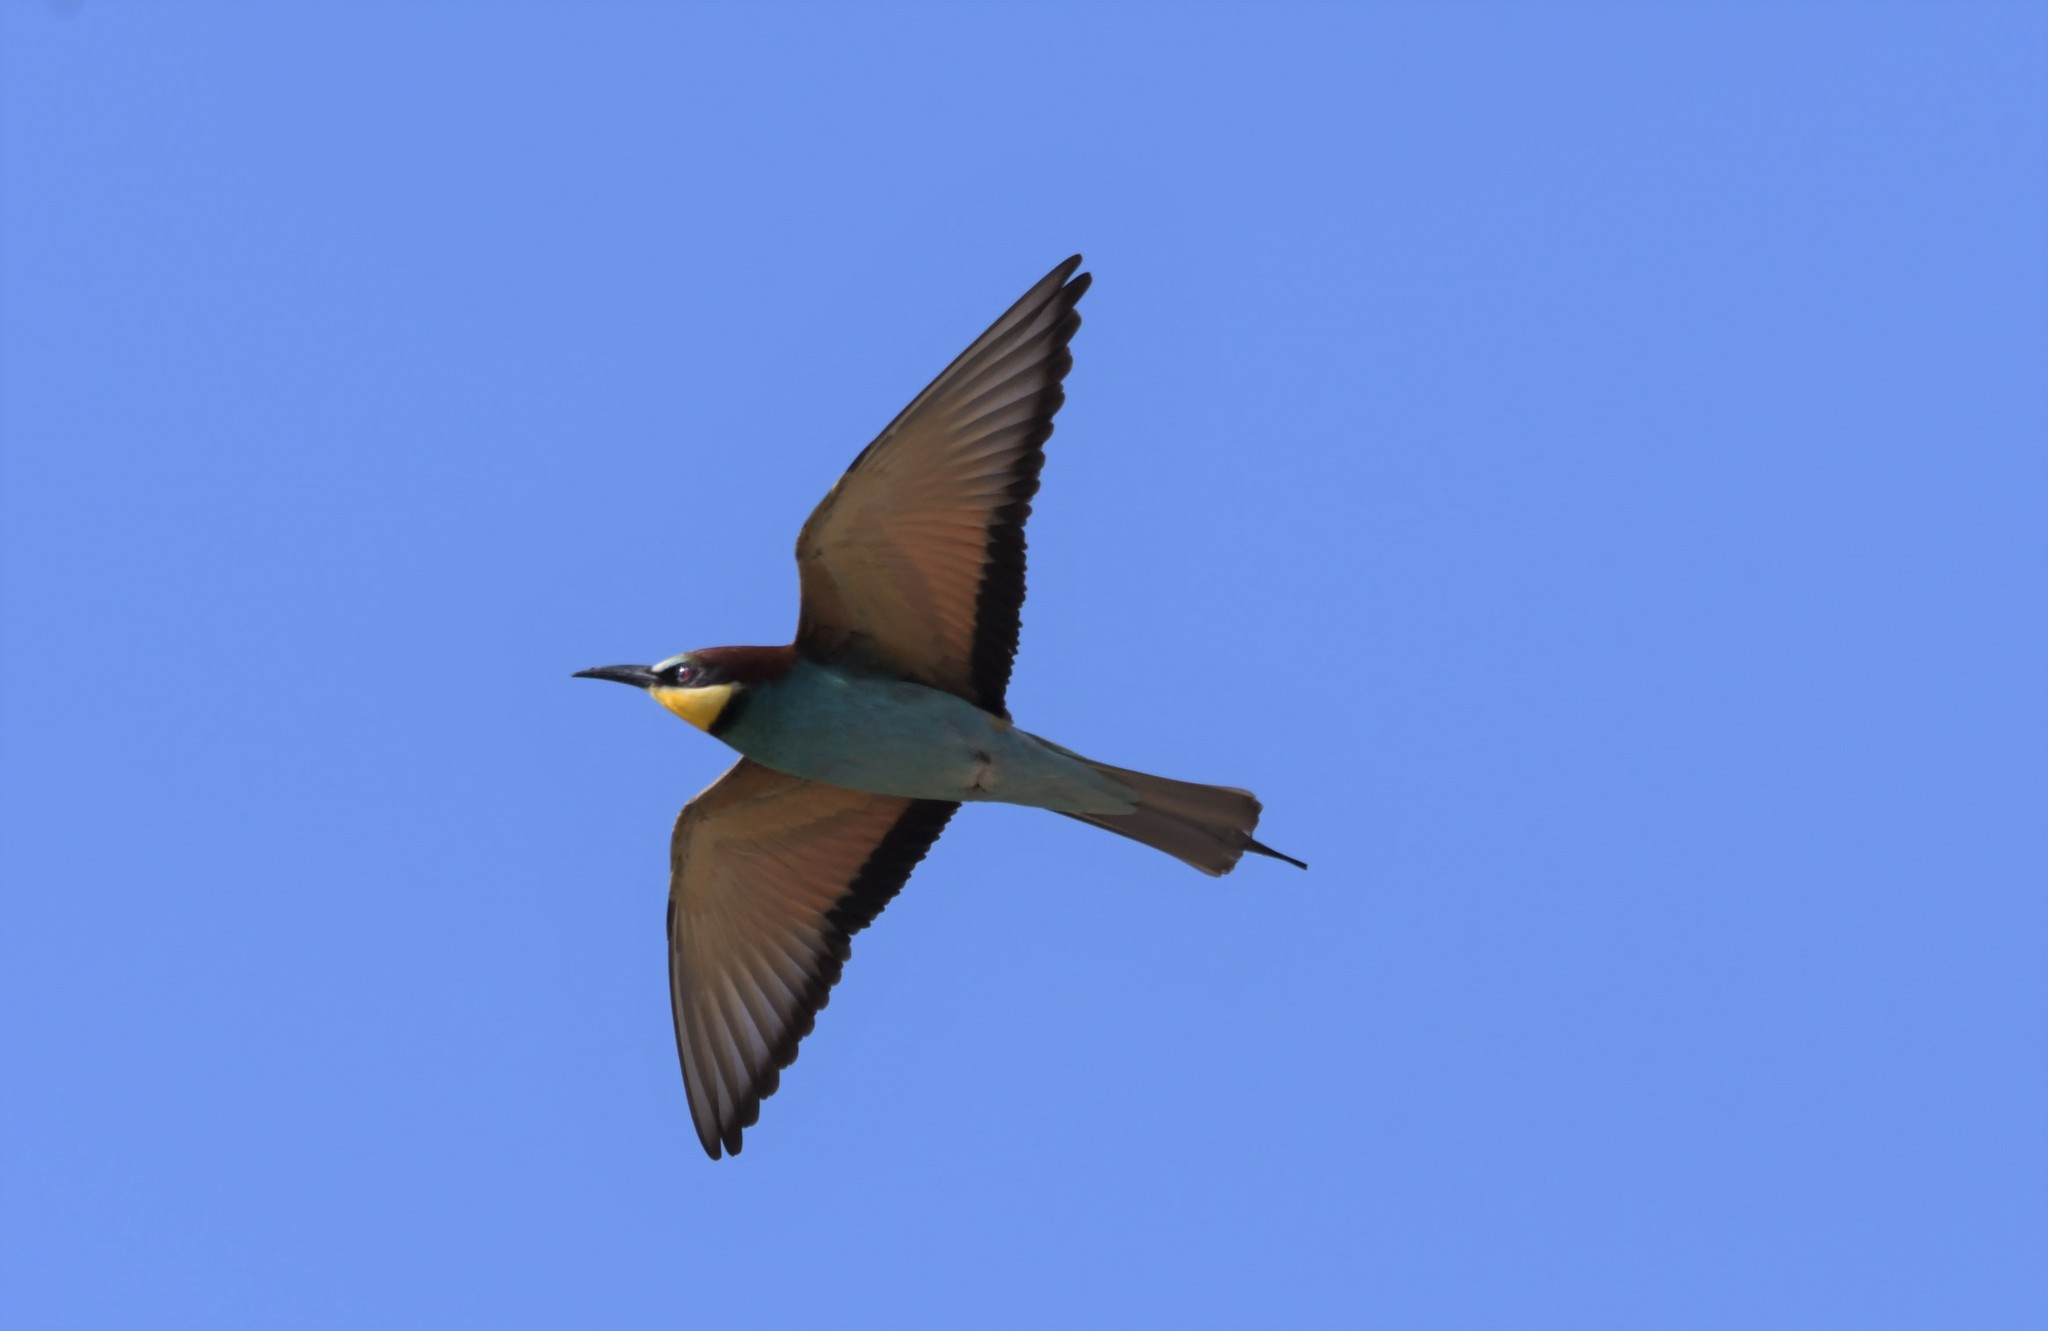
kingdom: Animalia
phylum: Chordata
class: Aves
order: Coraciiformes
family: Meropidae
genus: Merops
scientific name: Merops apiaster
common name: European bee-eater
